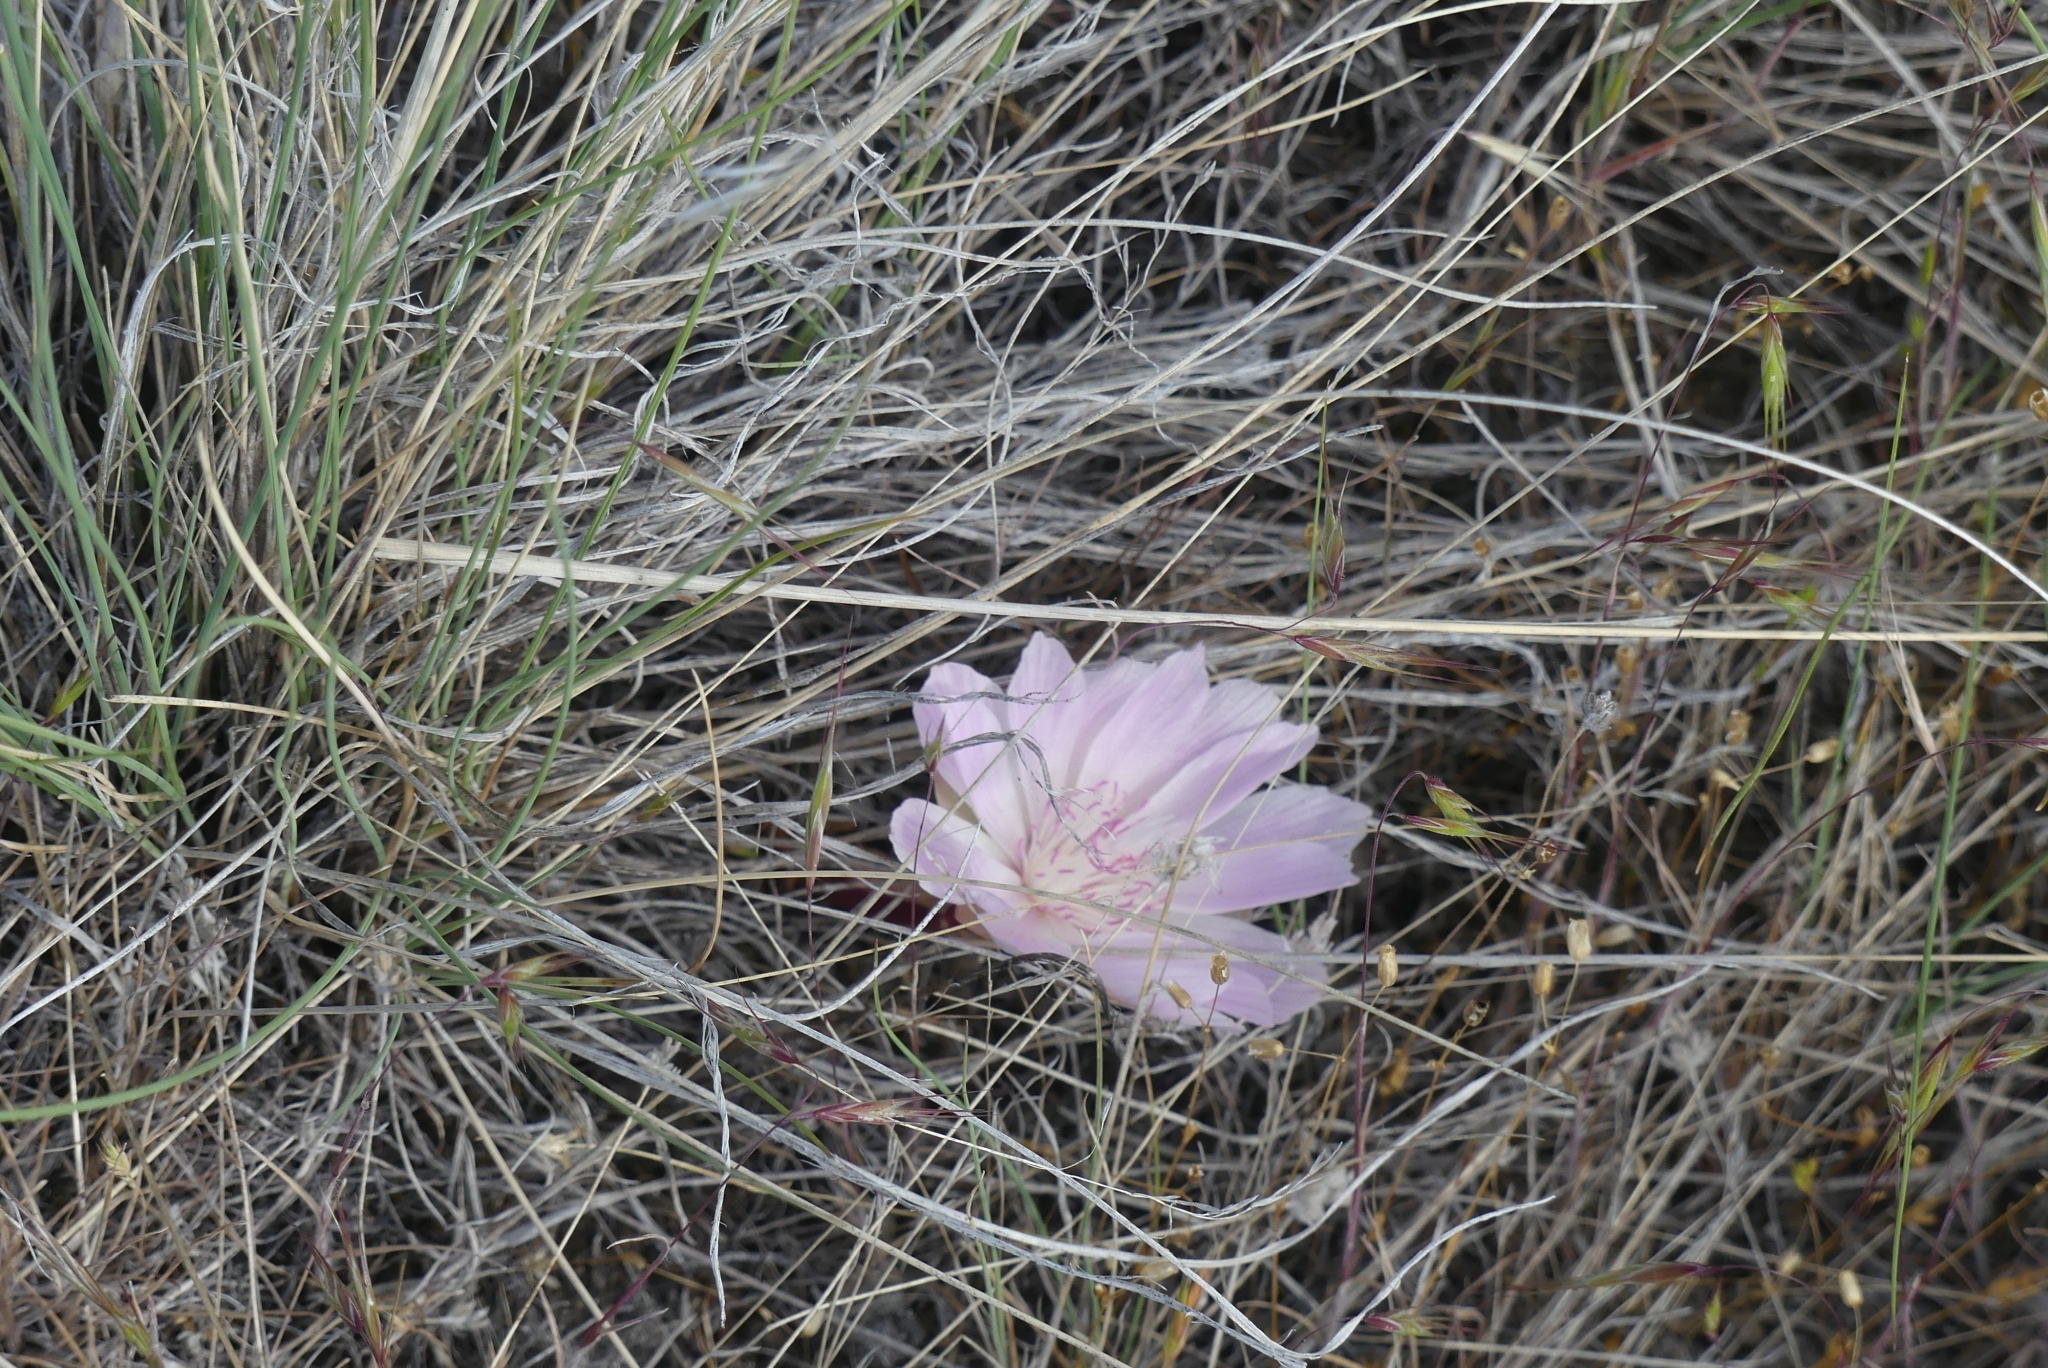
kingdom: Plantae
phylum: Tracheophyta
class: Magnoliopsida
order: Caryophyllales
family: Montiaceae
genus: Lewisia
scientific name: Lewisia rediviva
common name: Bitter-root
